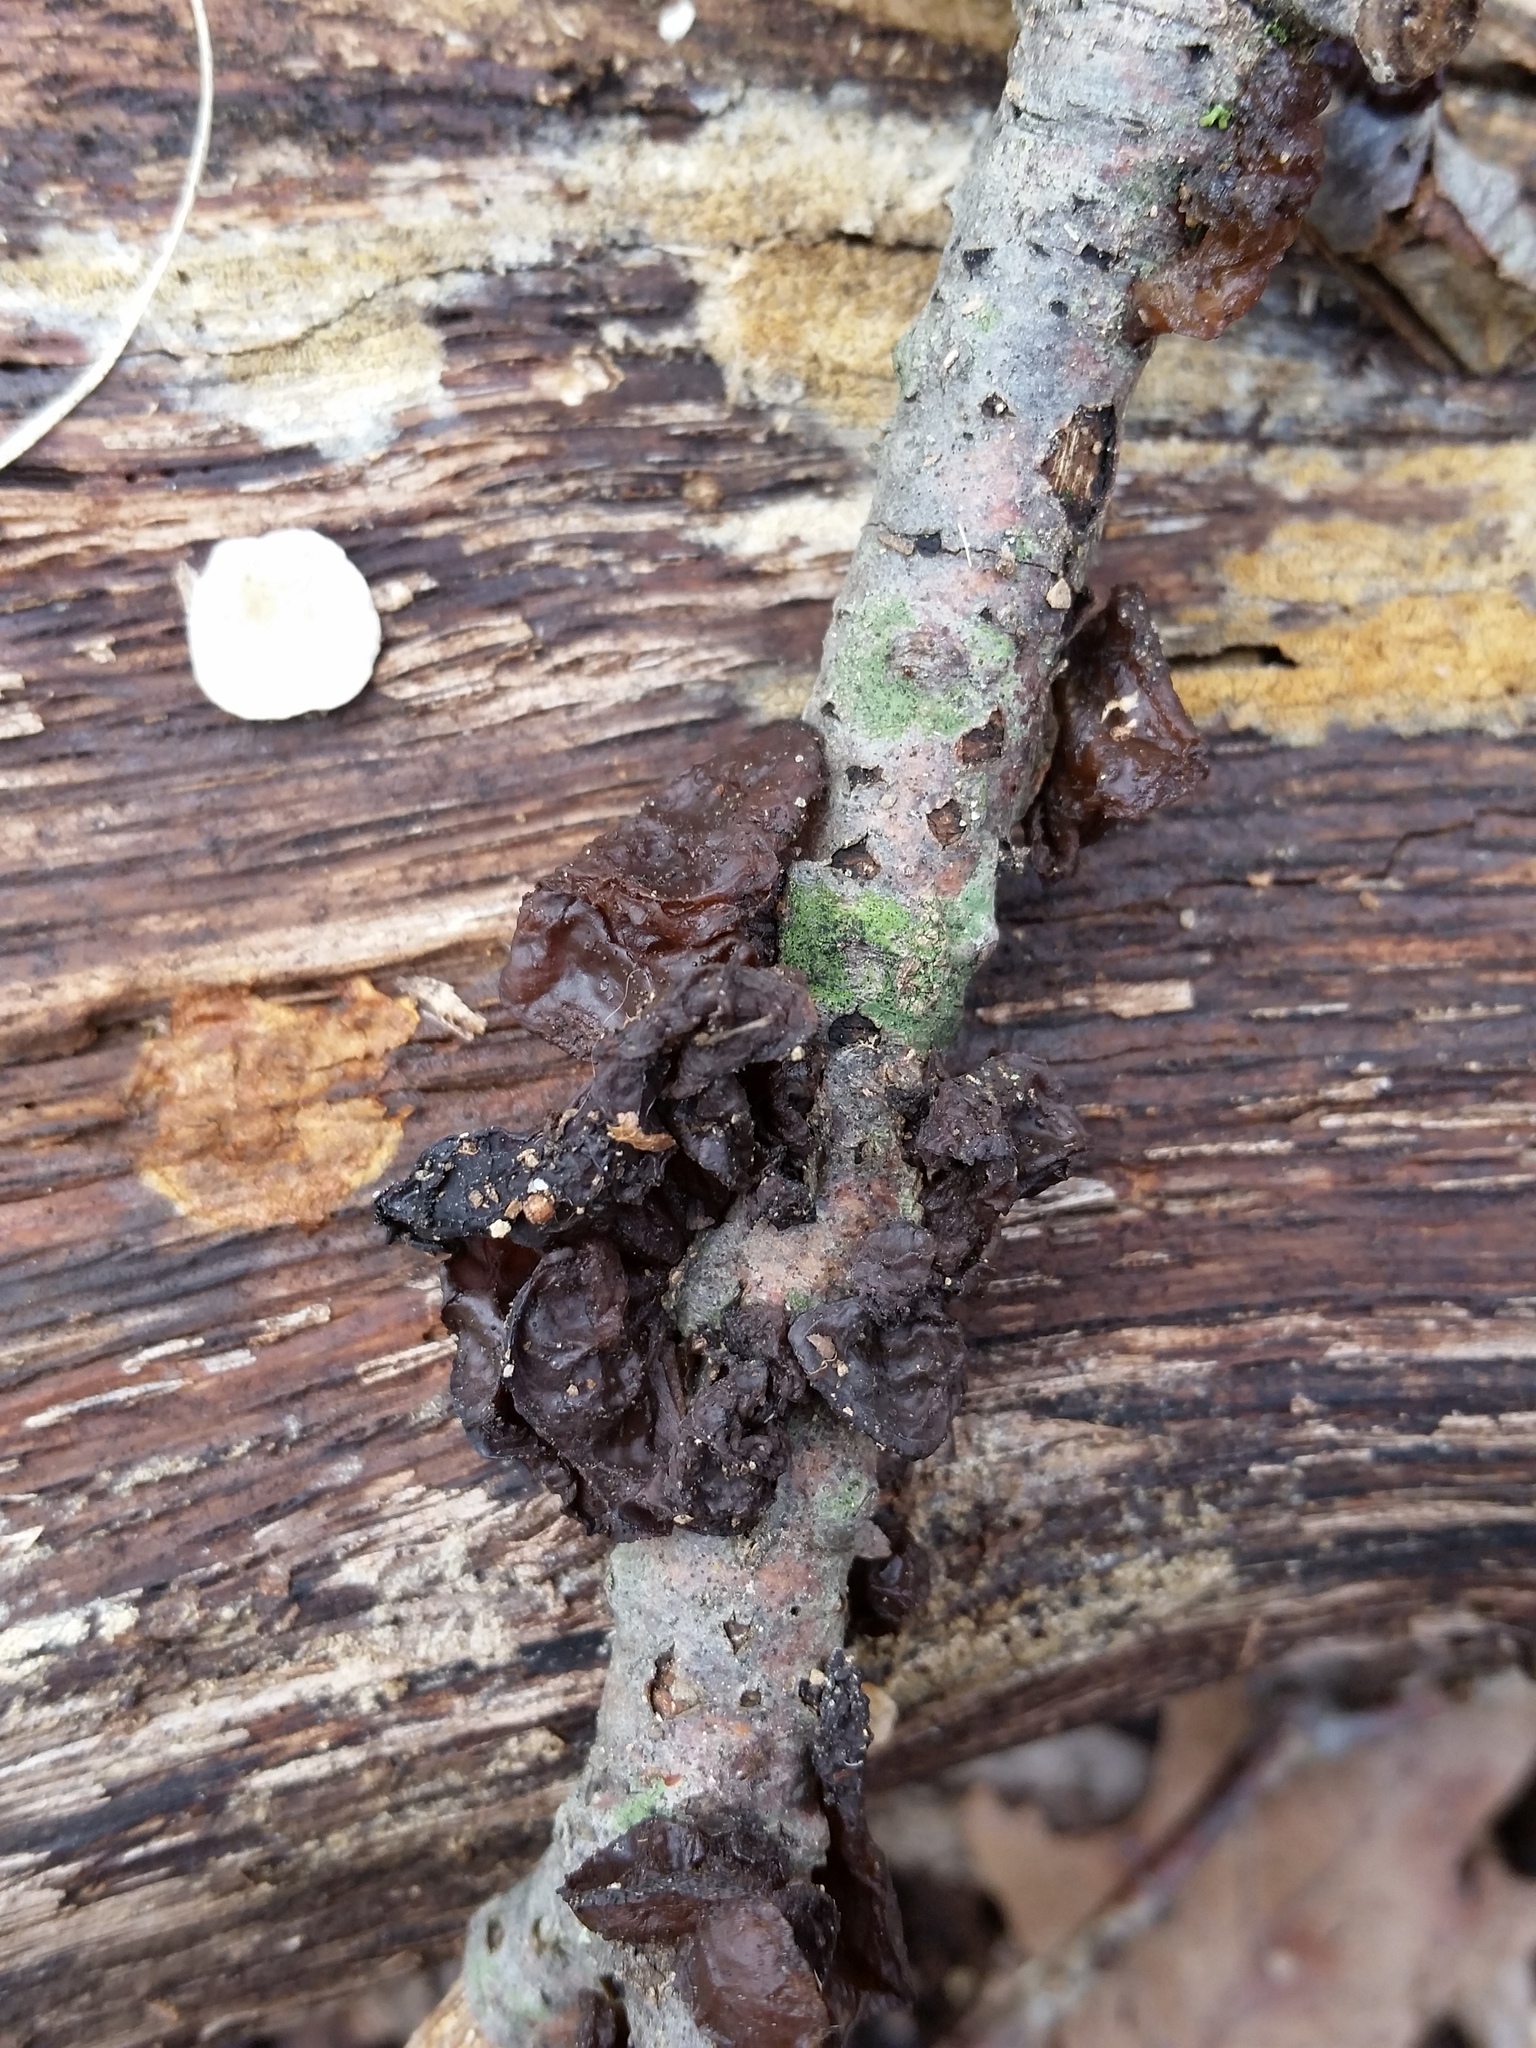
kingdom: Fungi
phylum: Basidiomycota
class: Agaricomycetes
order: Auriculariales
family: Auriculariaceae
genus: Exidia
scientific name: Exidia
